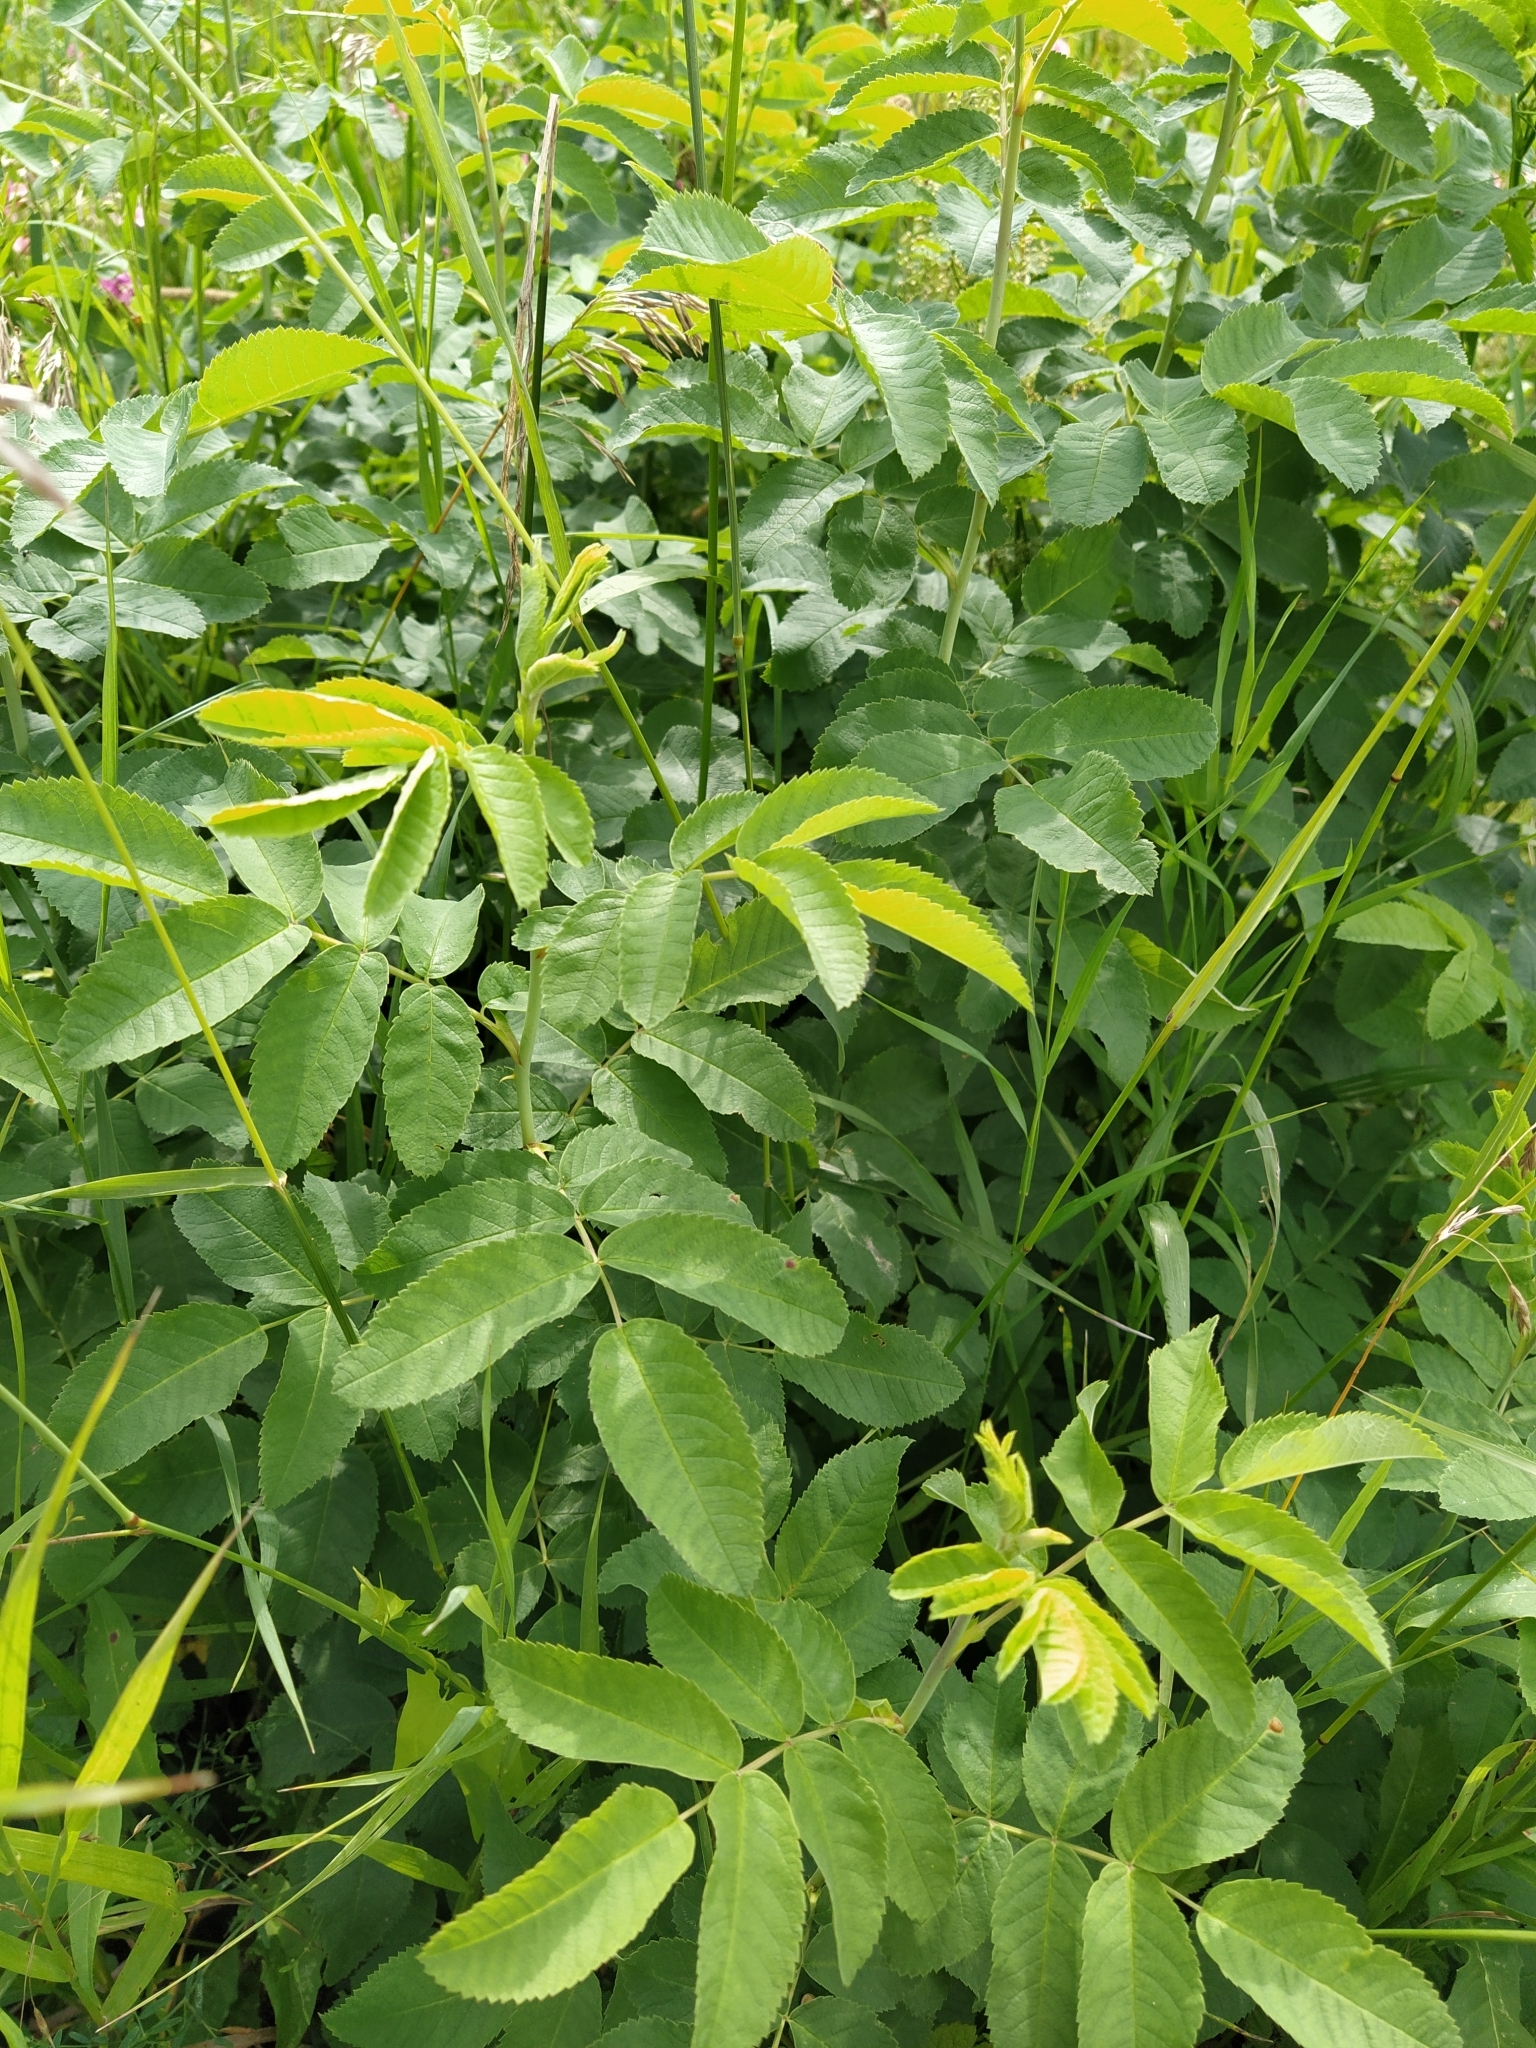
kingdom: Plantae
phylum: Tracheophyta
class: Magnoliopsida
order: Rosales
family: Rosaceae
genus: Rosa
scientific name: Rosa
